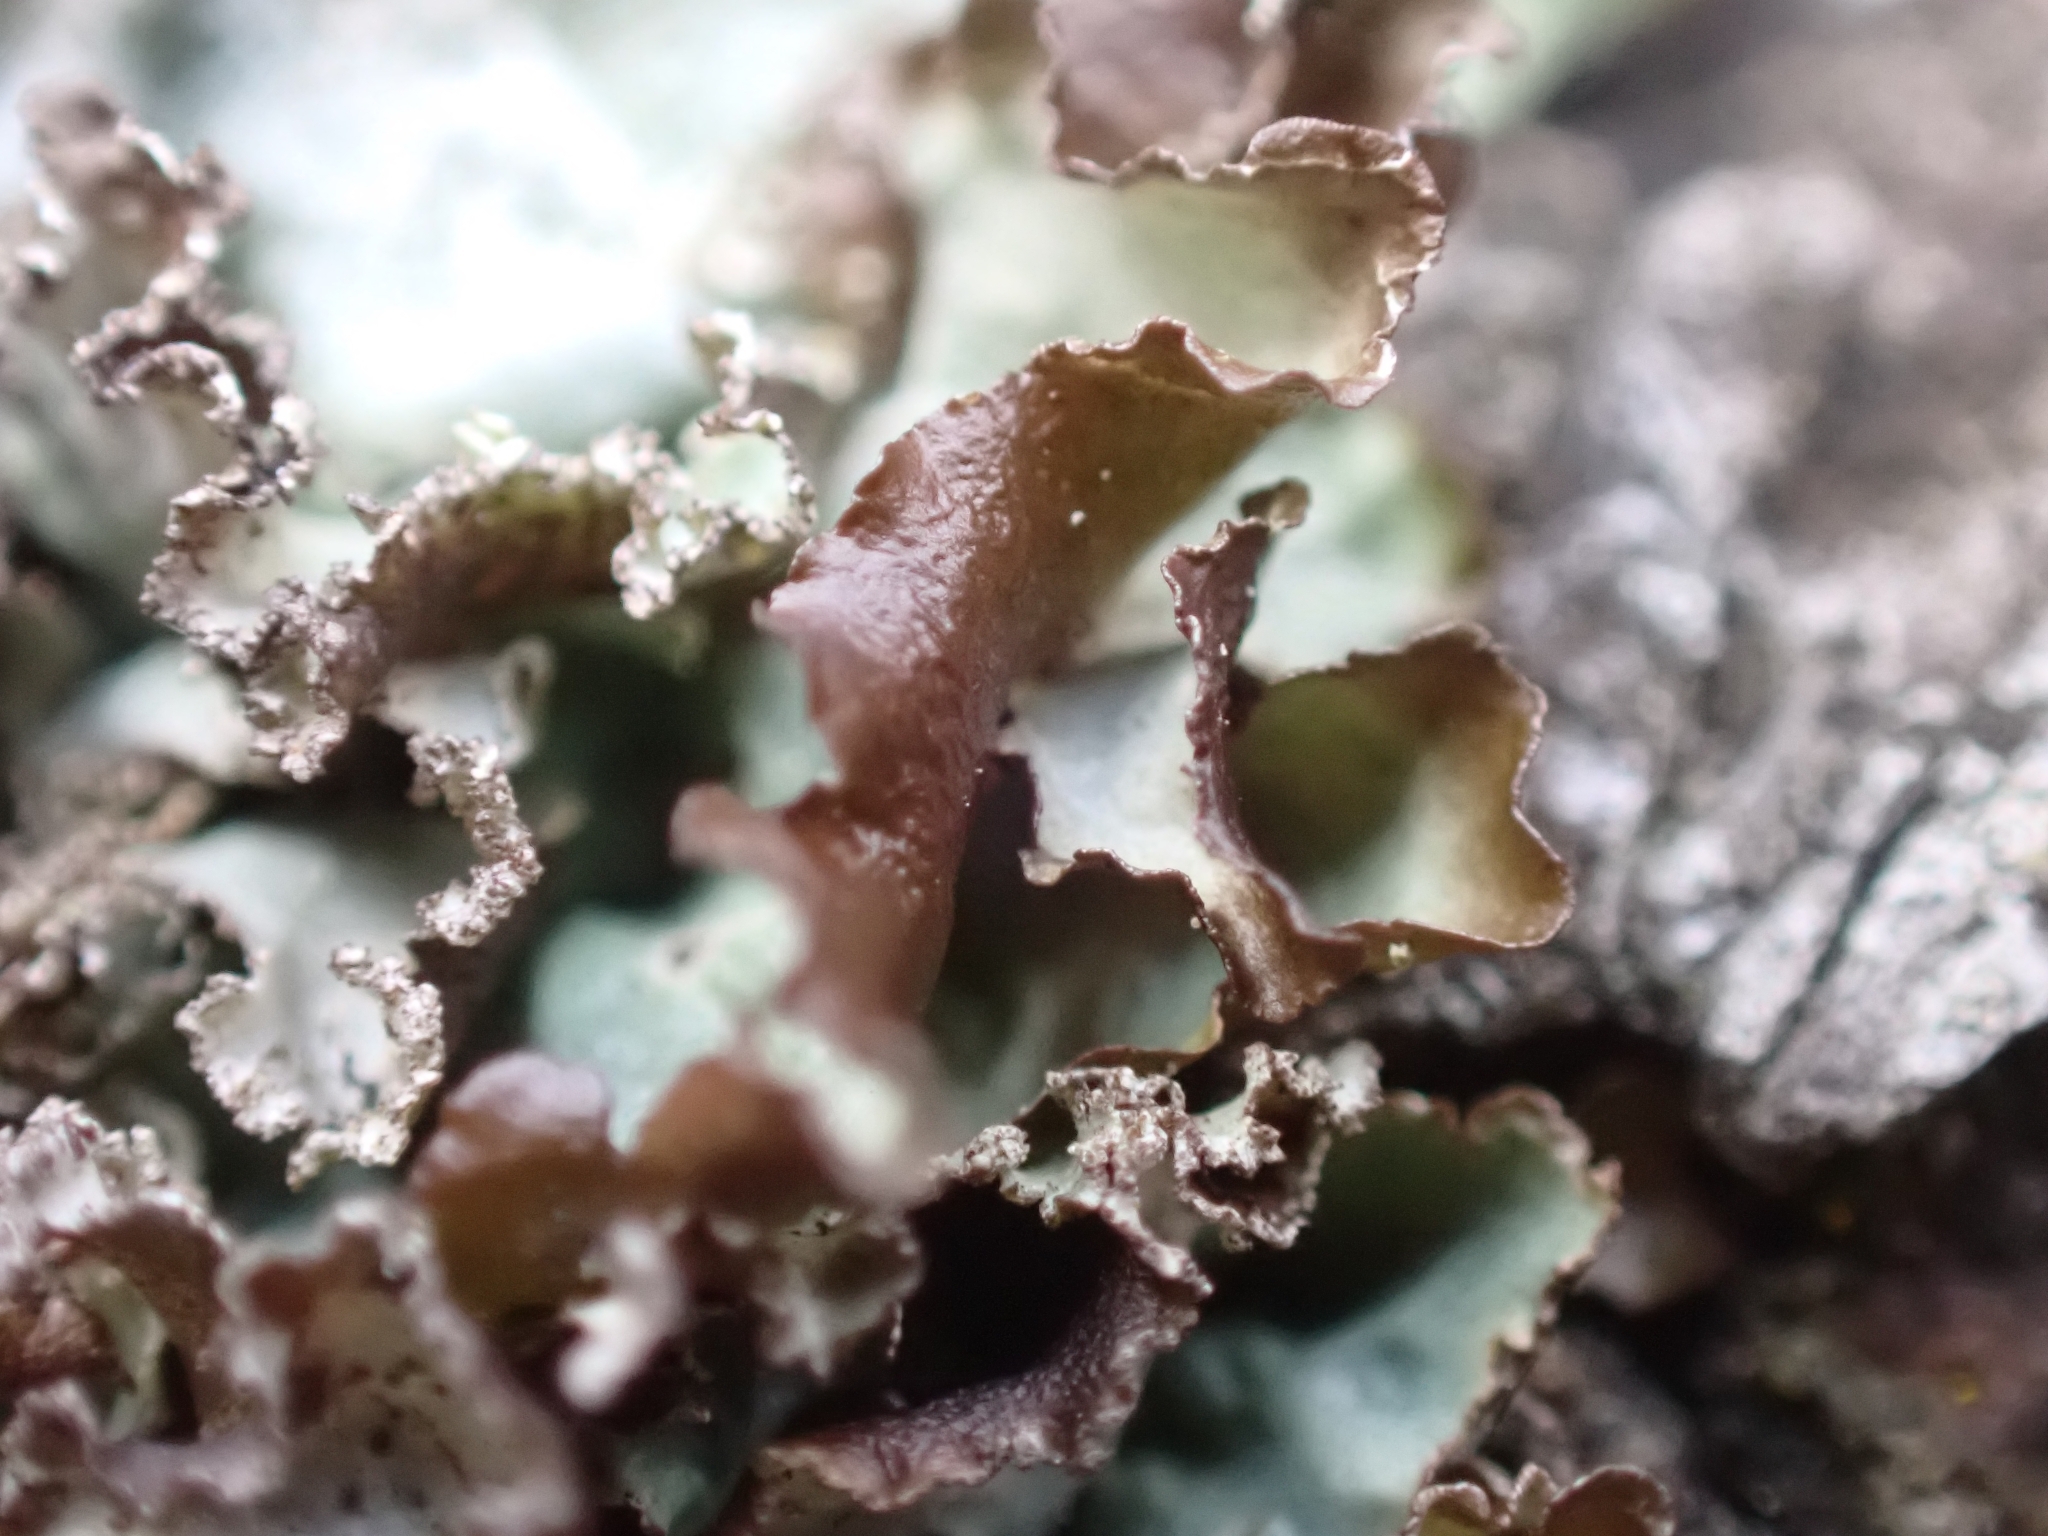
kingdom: Fungi
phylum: Ascomycota
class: Lecanoromycetes
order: Lecanorales
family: Parmeliaceae
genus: Platismatia
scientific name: Platismatia glauca
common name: Varied rag lichen
